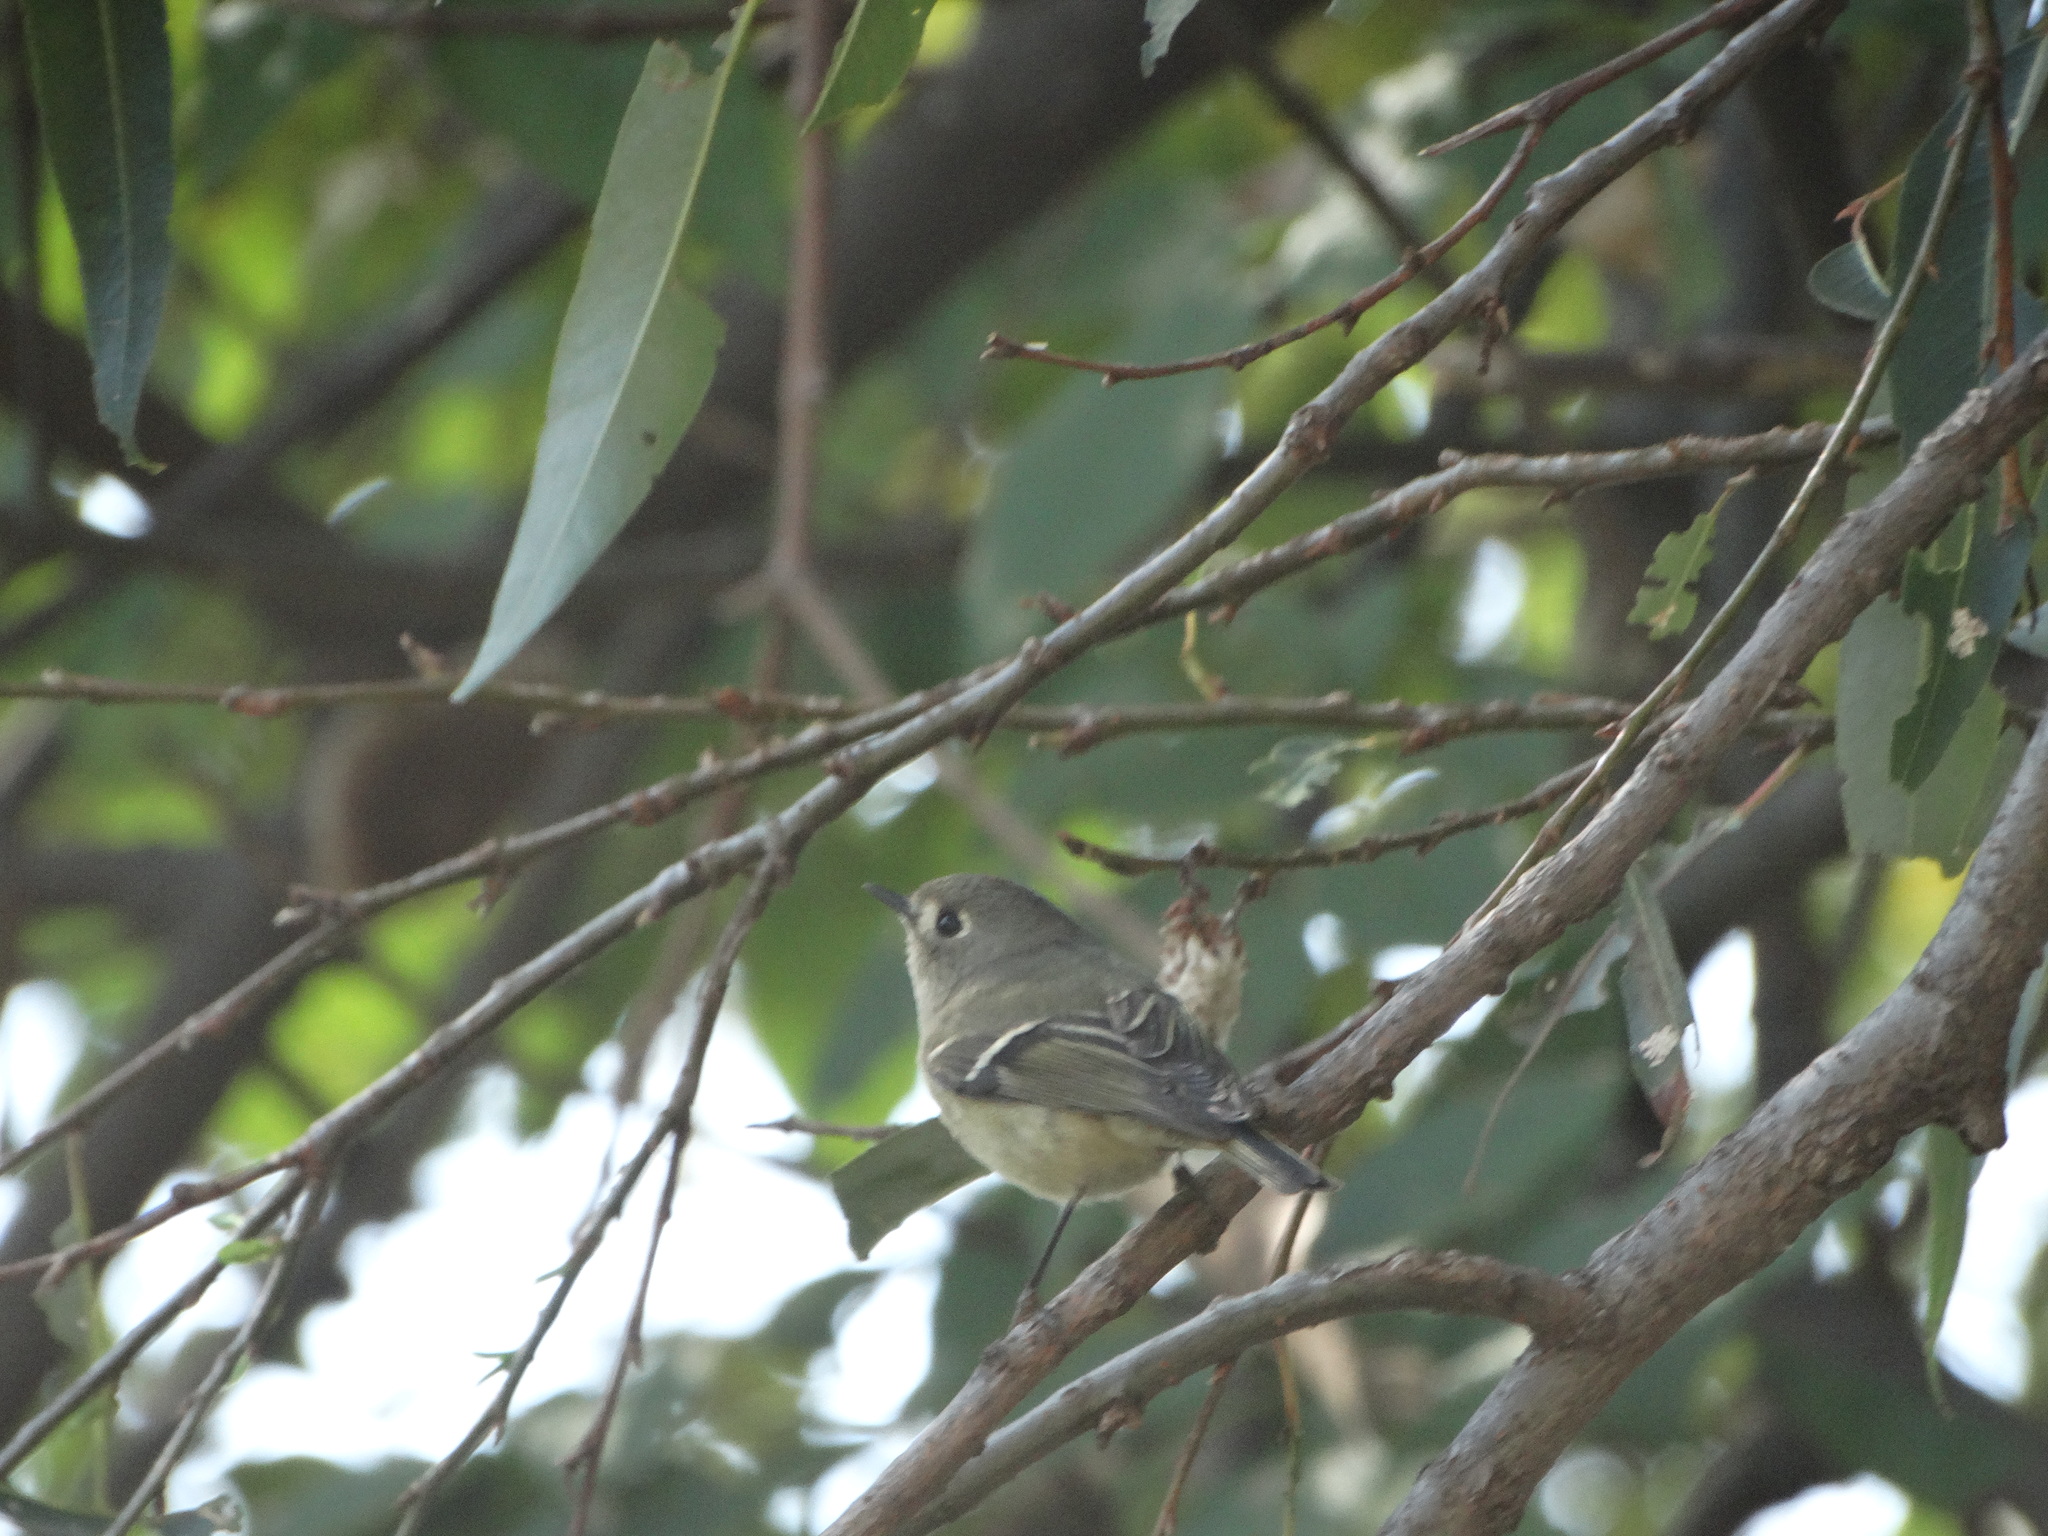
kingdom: Animalia
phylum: Chordata
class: Aves
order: Passeriformes
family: Regulidae
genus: Regulus
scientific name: Regulus calendula
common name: Ruby-crowned kinglet
